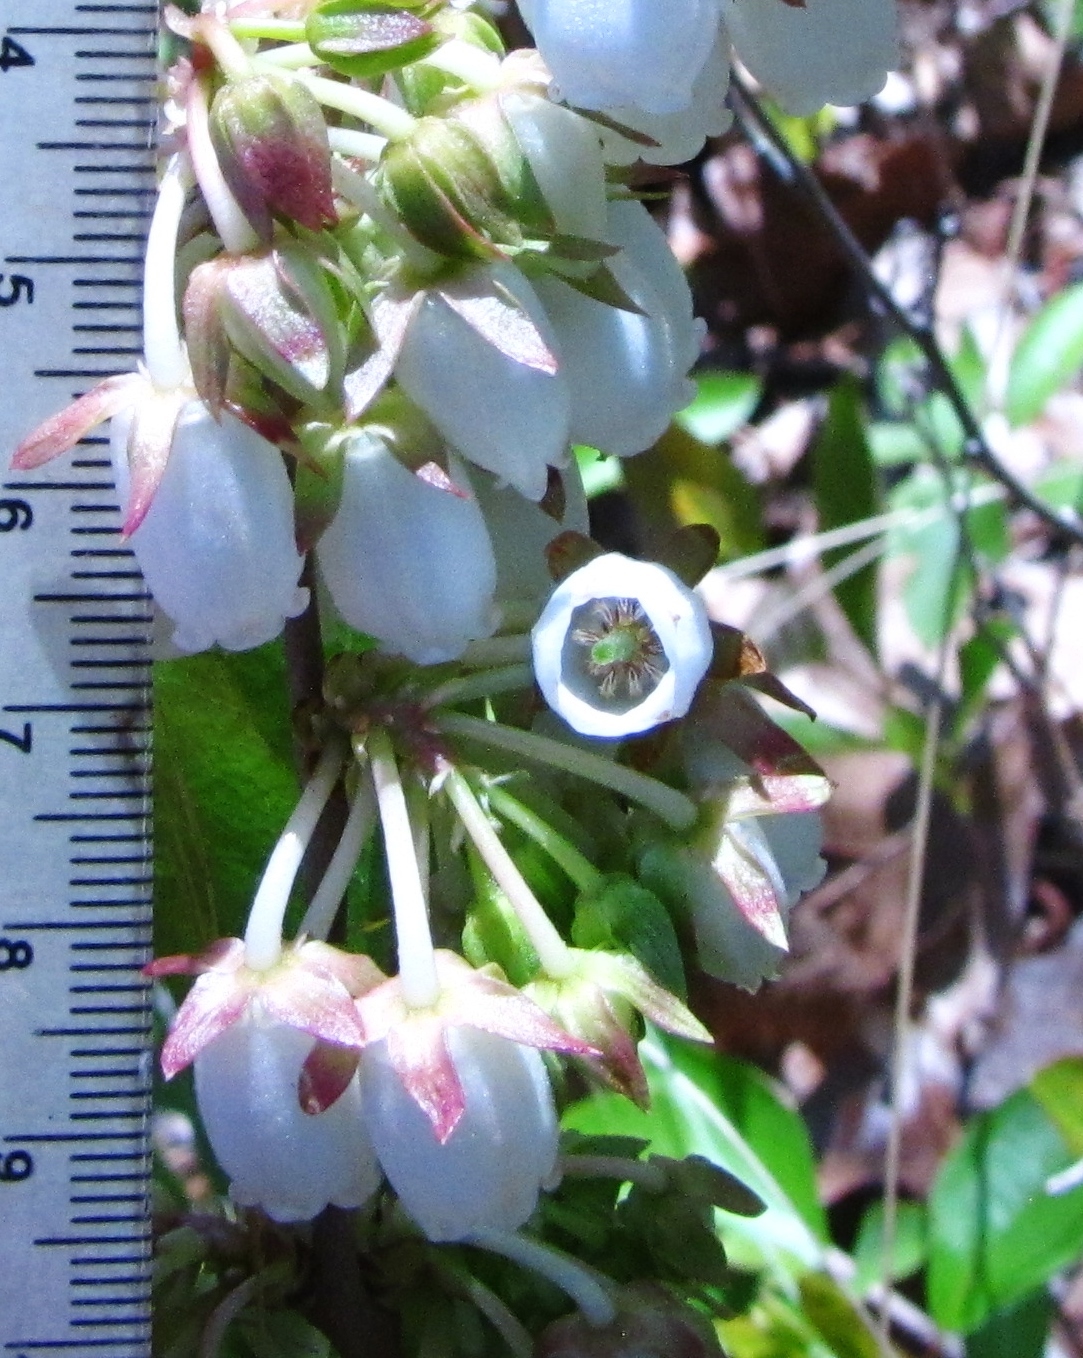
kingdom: Plantae
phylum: Tracheophyta
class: Magnoliopsida
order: Ericales
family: Ericaceae
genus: Lyonia
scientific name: Lyonia mariana
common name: Staggerbush
